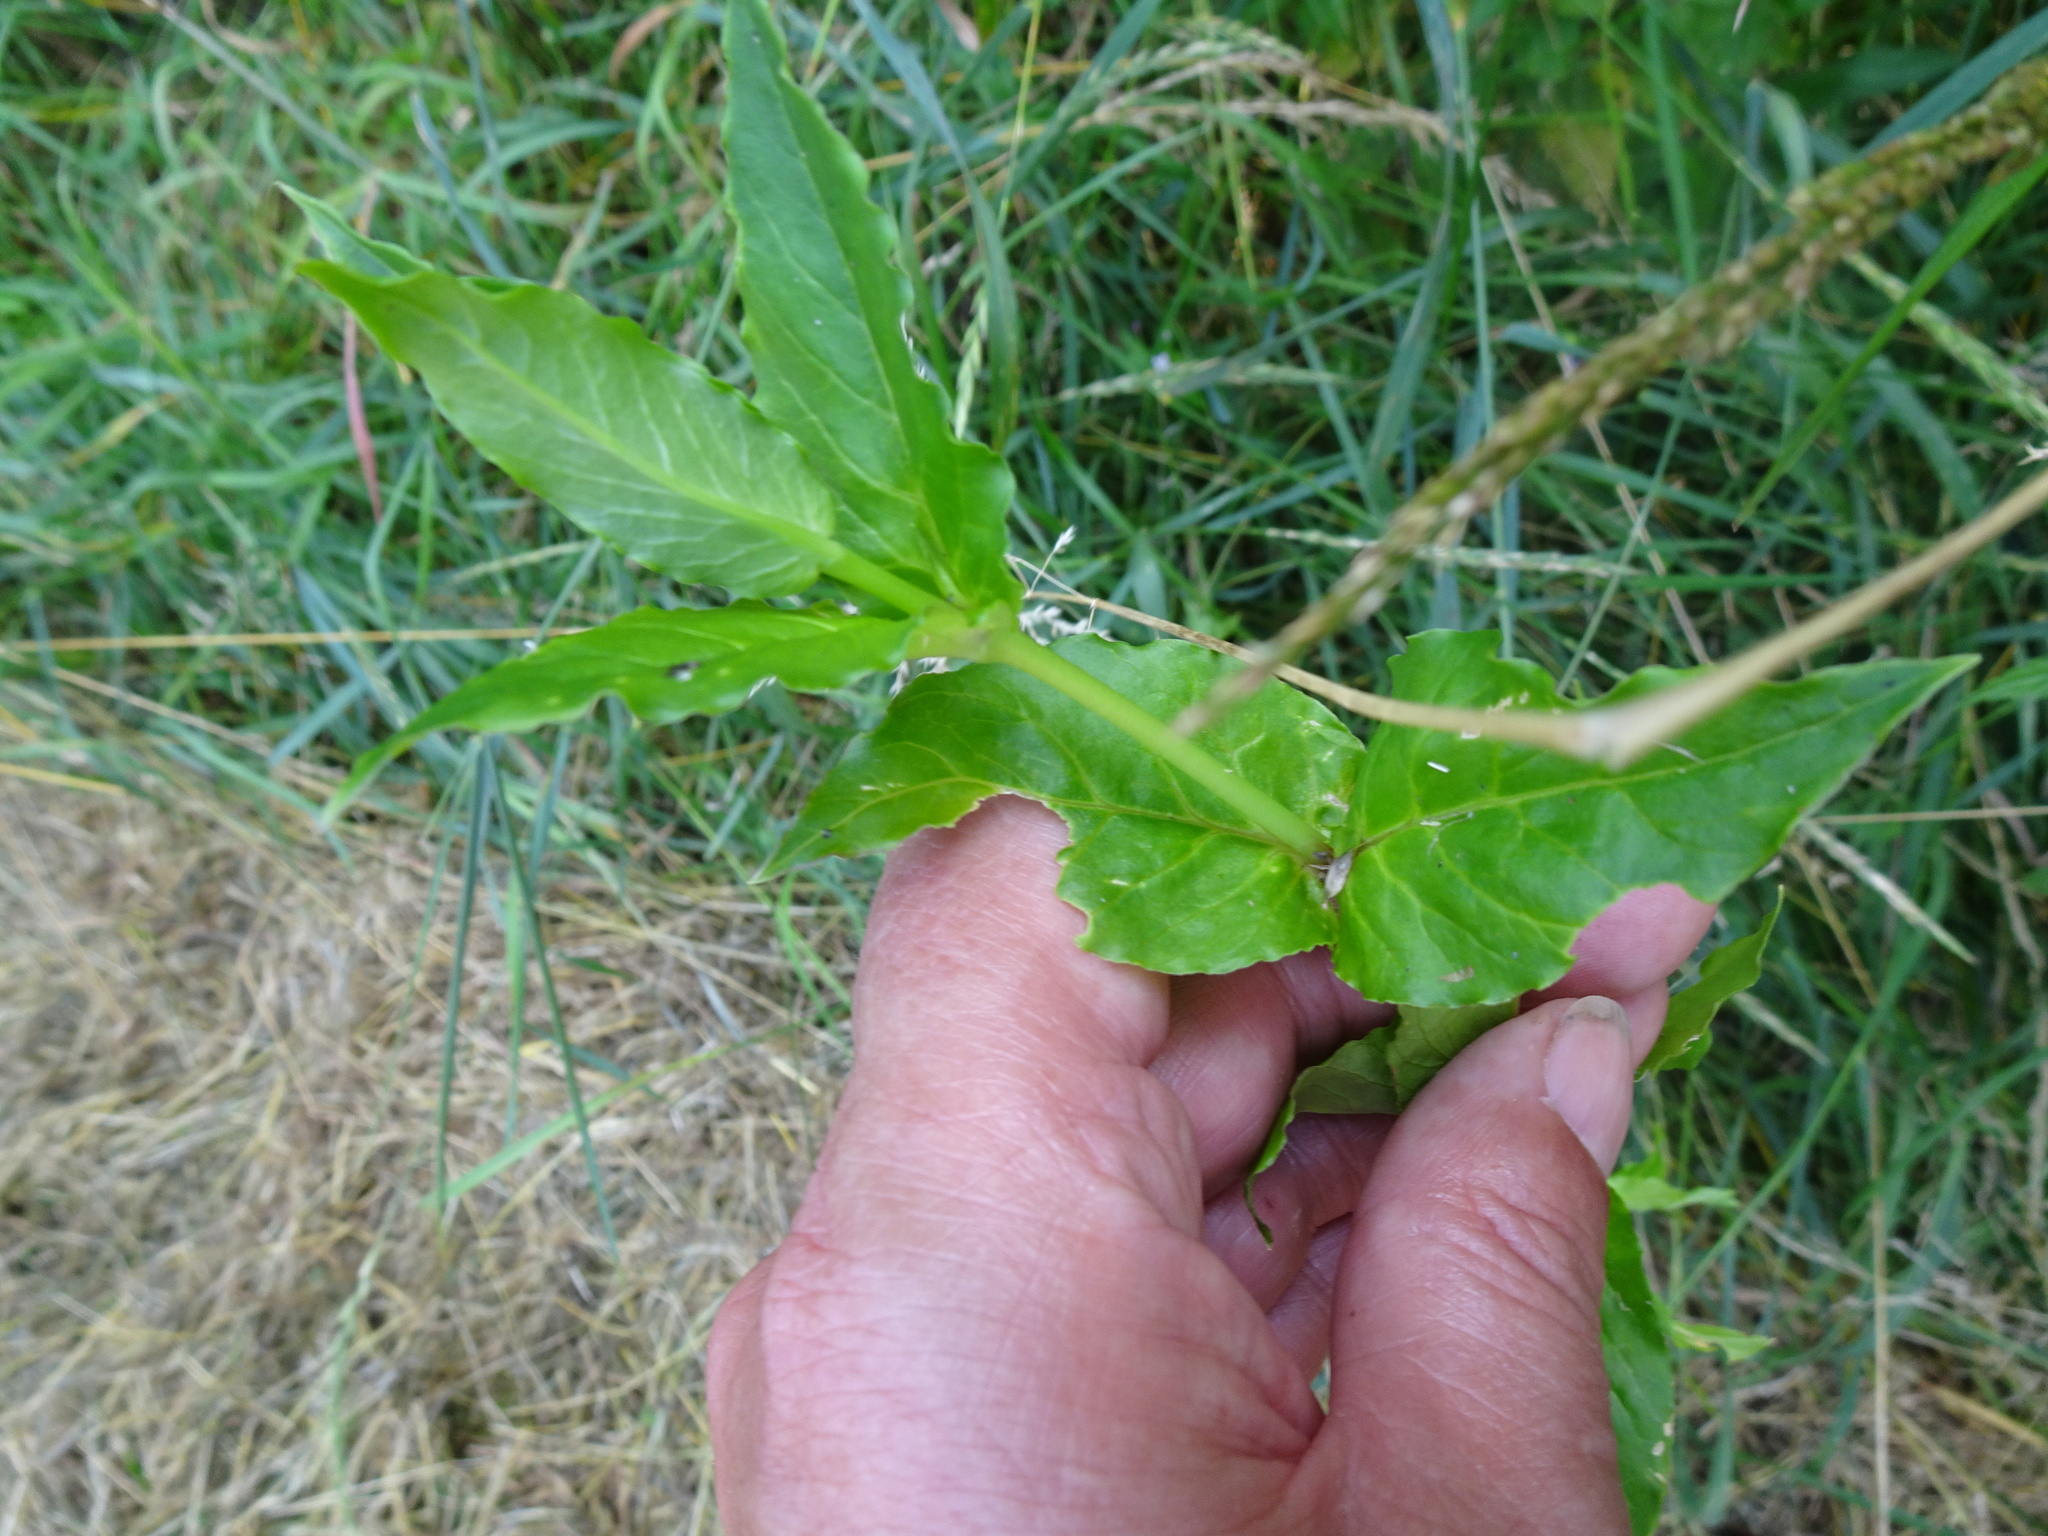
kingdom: Plantae
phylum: Tracheophyta
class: Magnoliopsida
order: Caryophyllales
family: Caryophyllaceae
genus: Stellaria
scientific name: Stellaria aquatica
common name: Water chickweed
